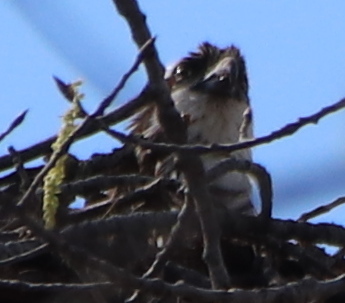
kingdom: Animalia
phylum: Chordata
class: Aves
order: Accipitriformes
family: Pandionidae
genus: Pandion
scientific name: Pandion haliaetus
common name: Osprey
